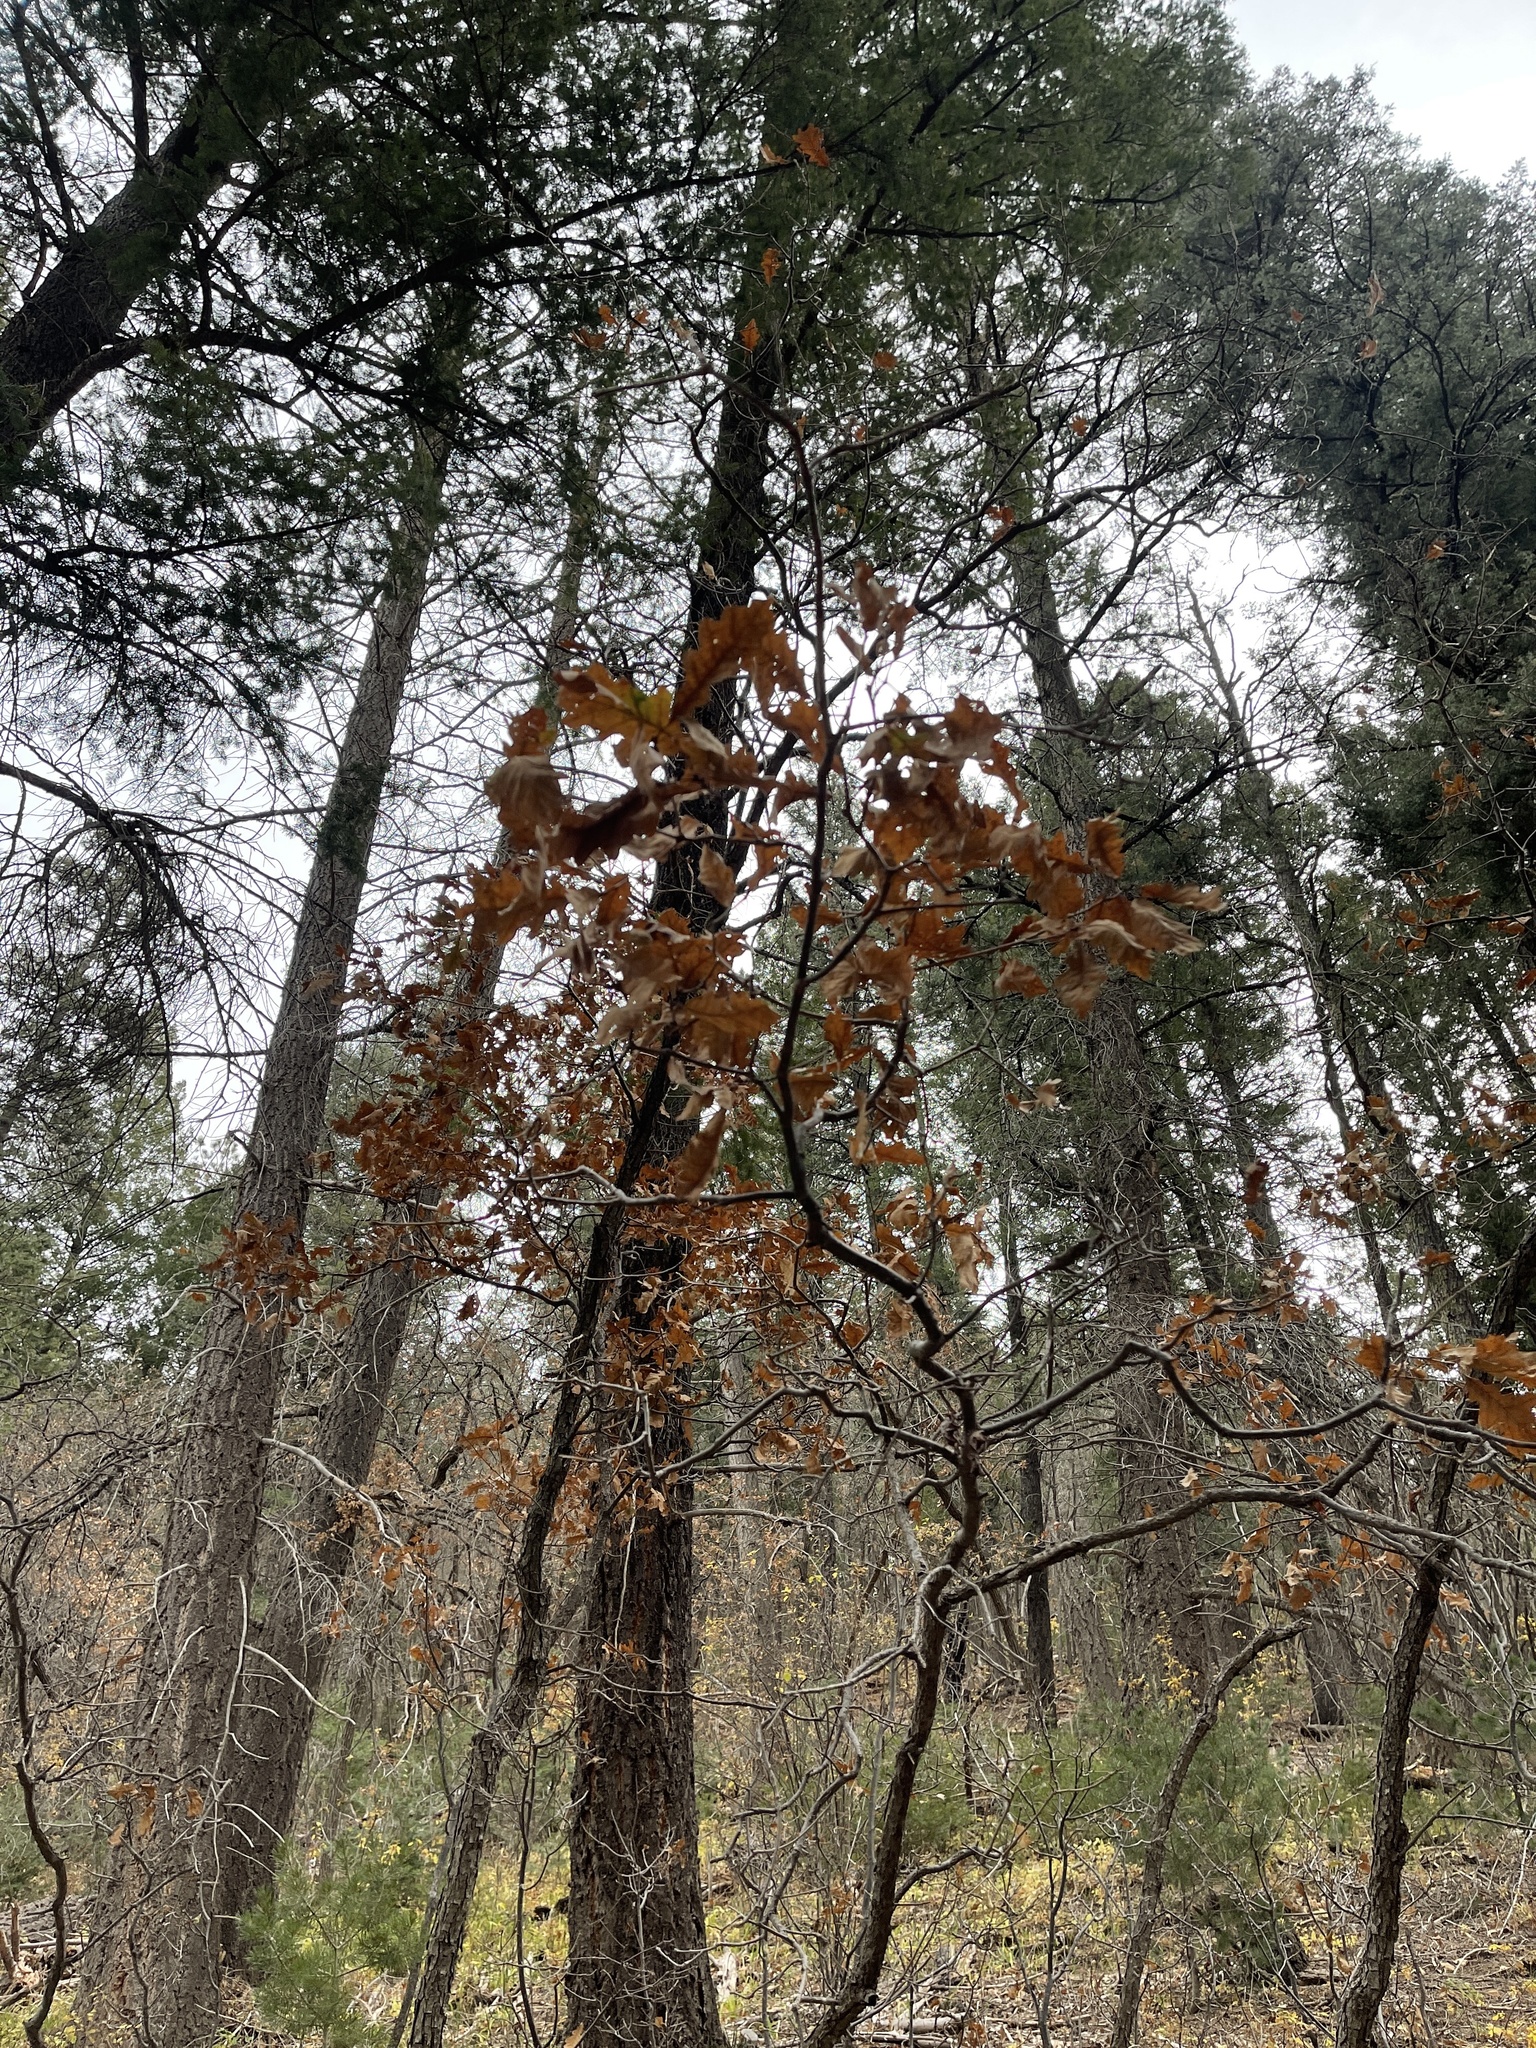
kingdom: Plantae
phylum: Tracheophyta
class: Magnoliopsida
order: Fagales
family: Fagaceae
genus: Quercus
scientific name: Quercus gambelii
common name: Gambel oak
